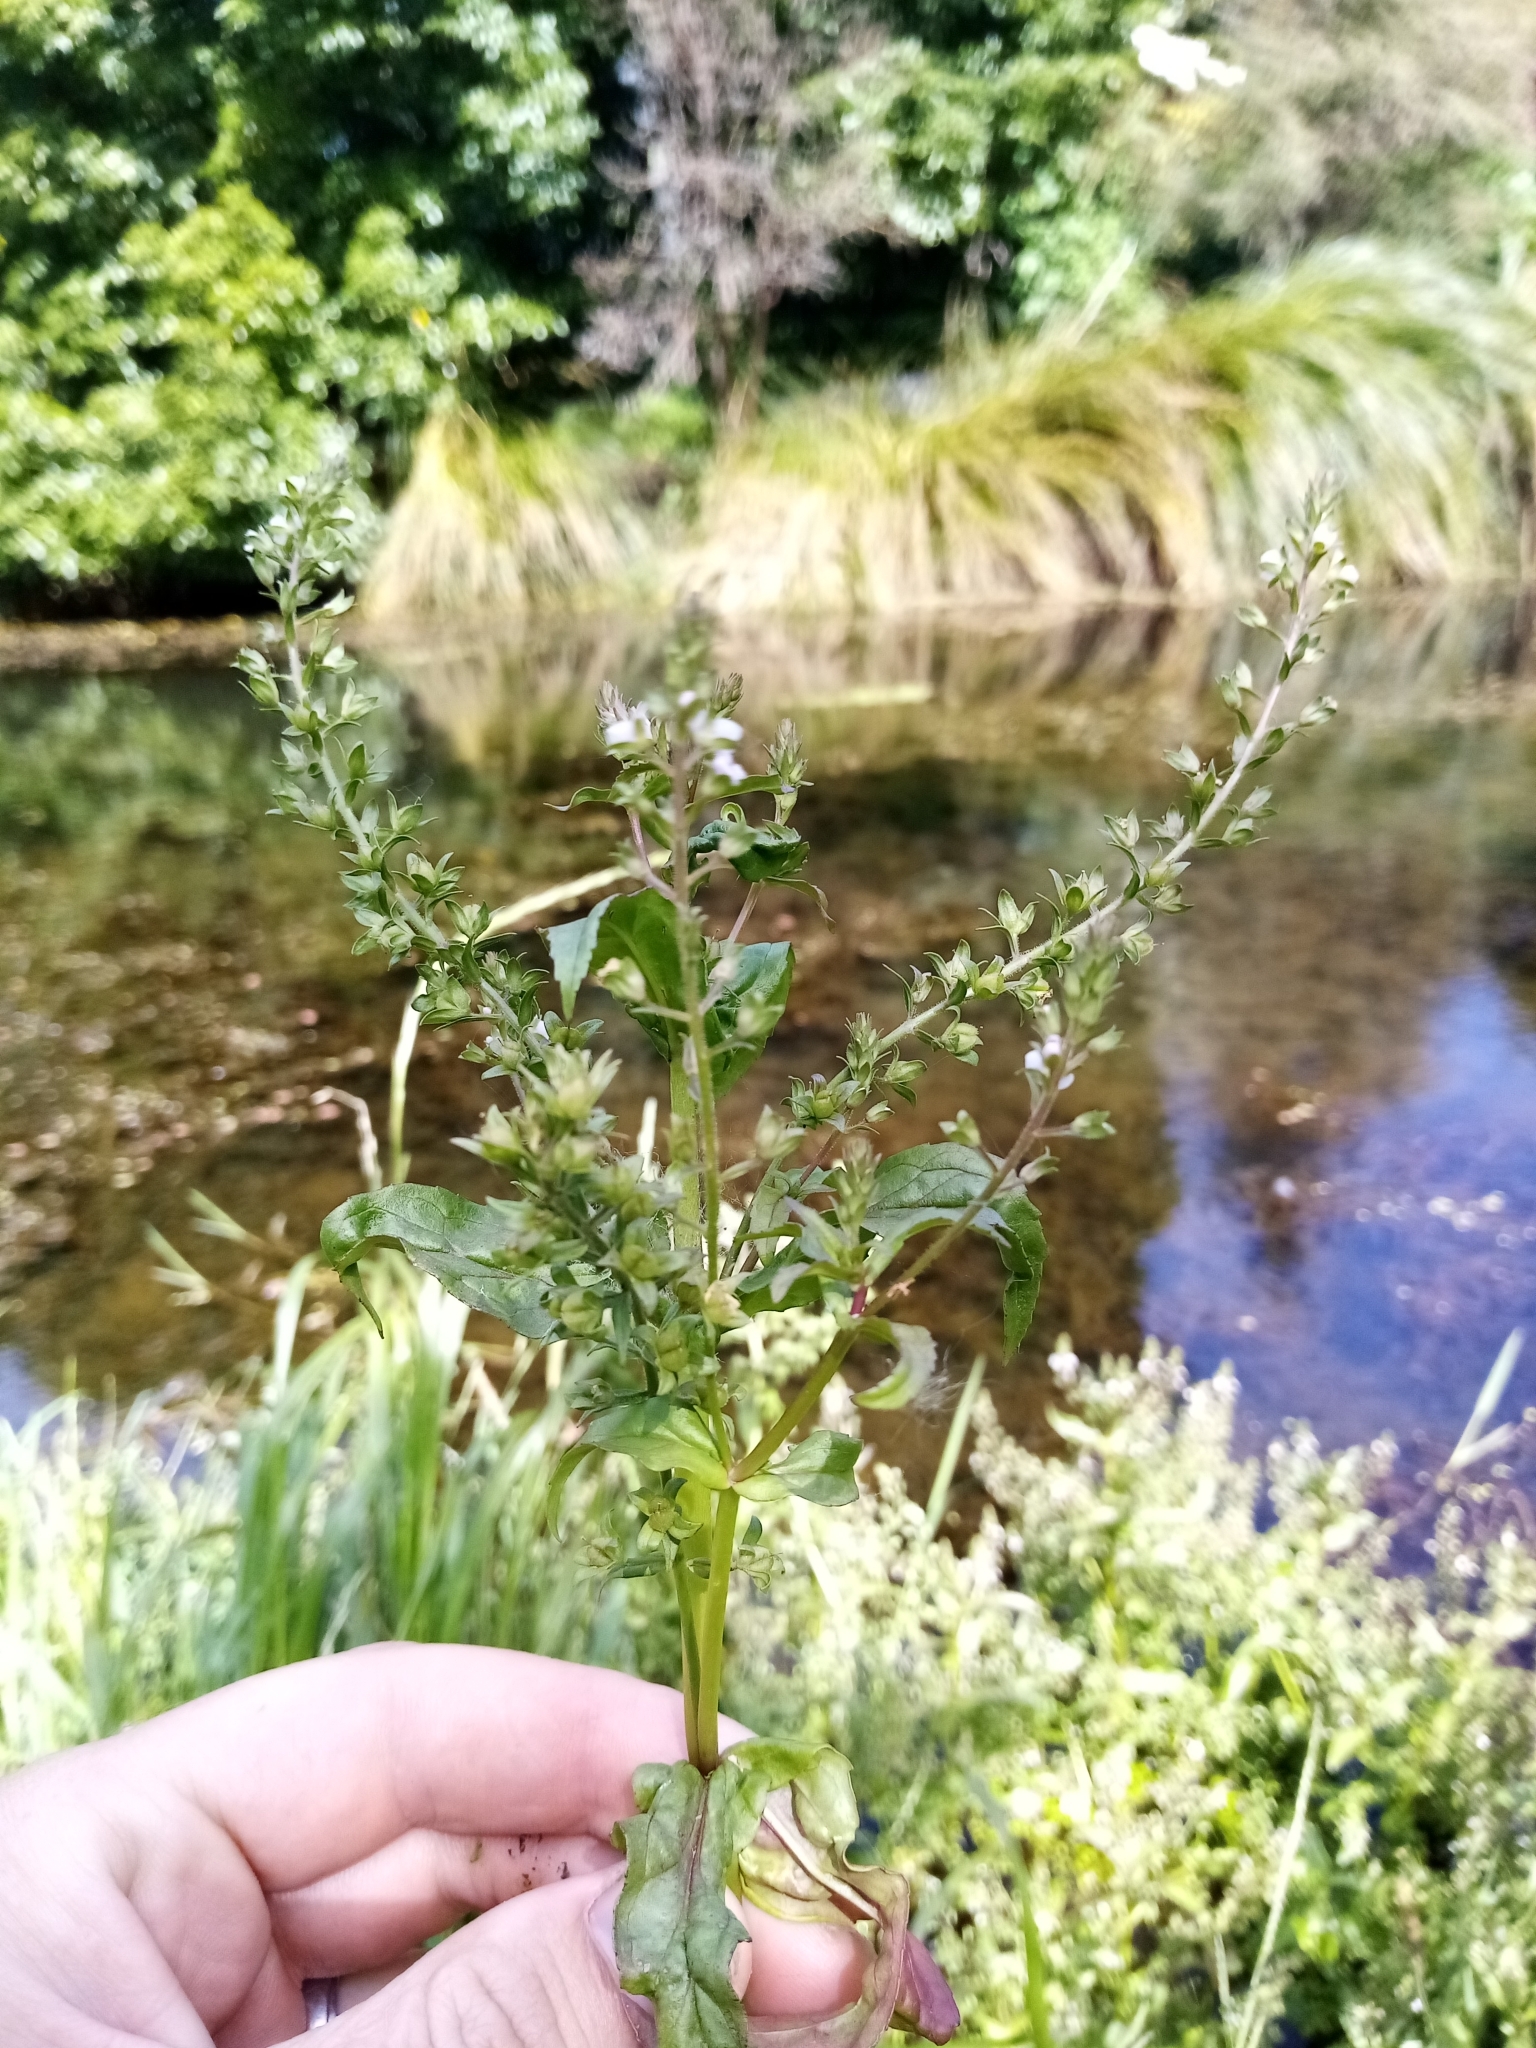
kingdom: Plantae
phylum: Tracheophyta
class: Magnoliopsida
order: Lamiales
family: Plantaginaceae
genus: Veronica
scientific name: Veronica catenata
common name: Pink water-speedwell
